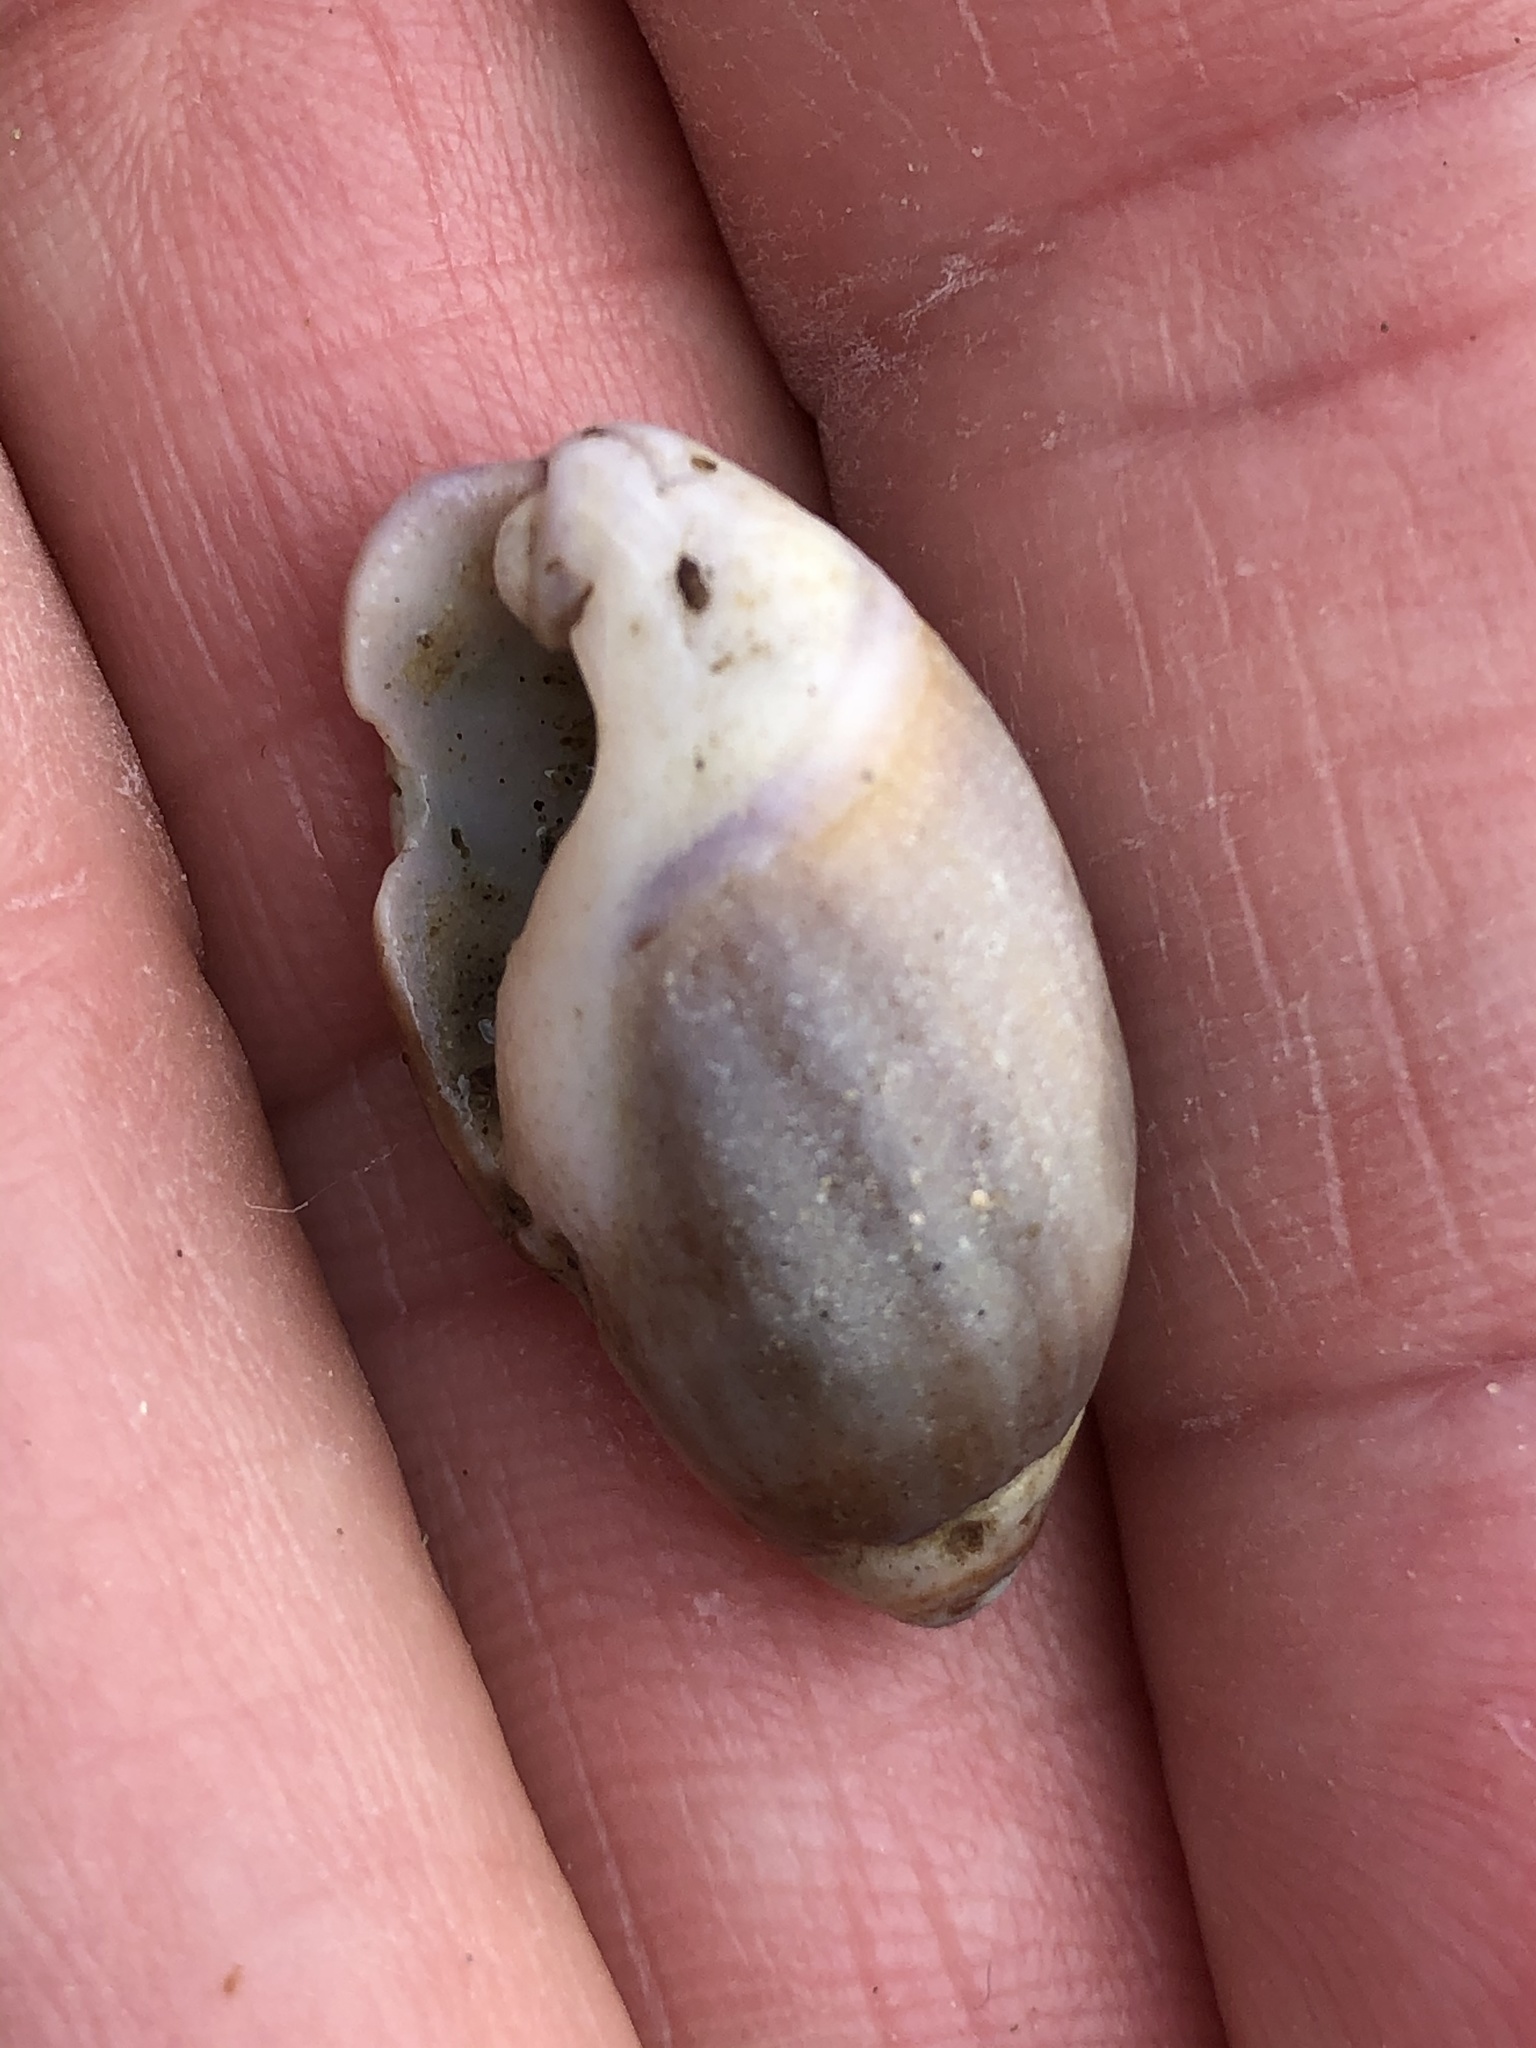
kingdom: Animalia
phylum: Mollusca
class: Gastropoda
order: Neogastropoda
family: Olividae
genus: Callianax
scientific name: Callianax biplicata
